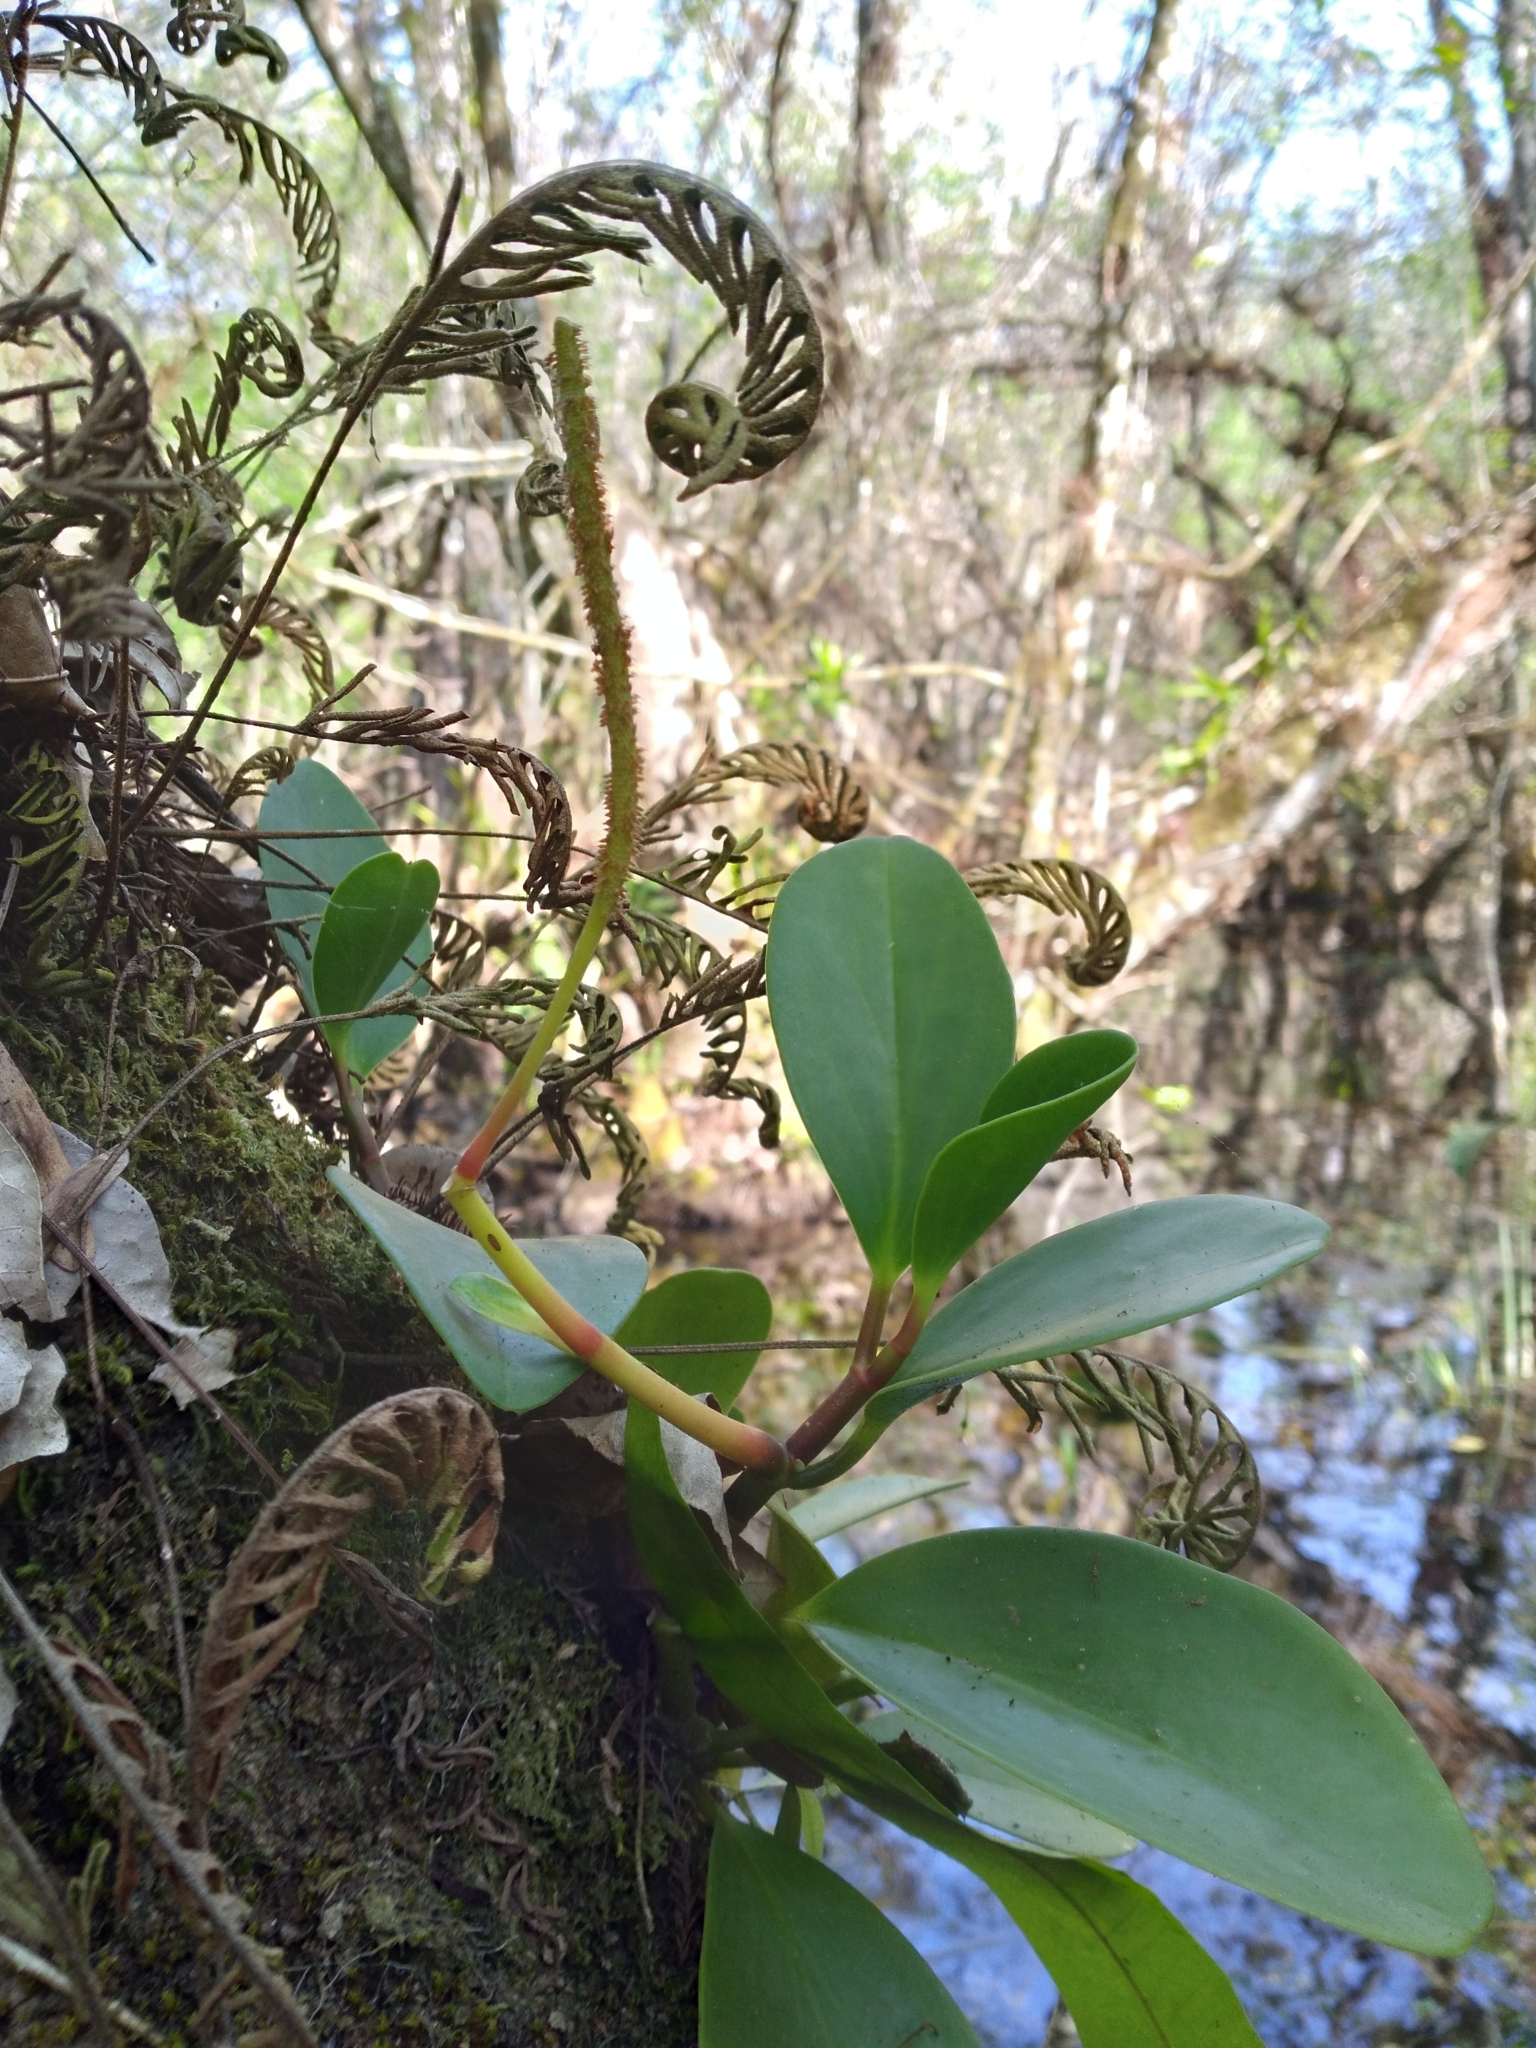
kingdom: Plantae
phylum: Tracheophyta
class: Magnoliopsida
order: Piperales
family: Piperaceae
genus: Peperomia
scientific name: Peperomia obtusifolia
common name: Baby rubberplant
